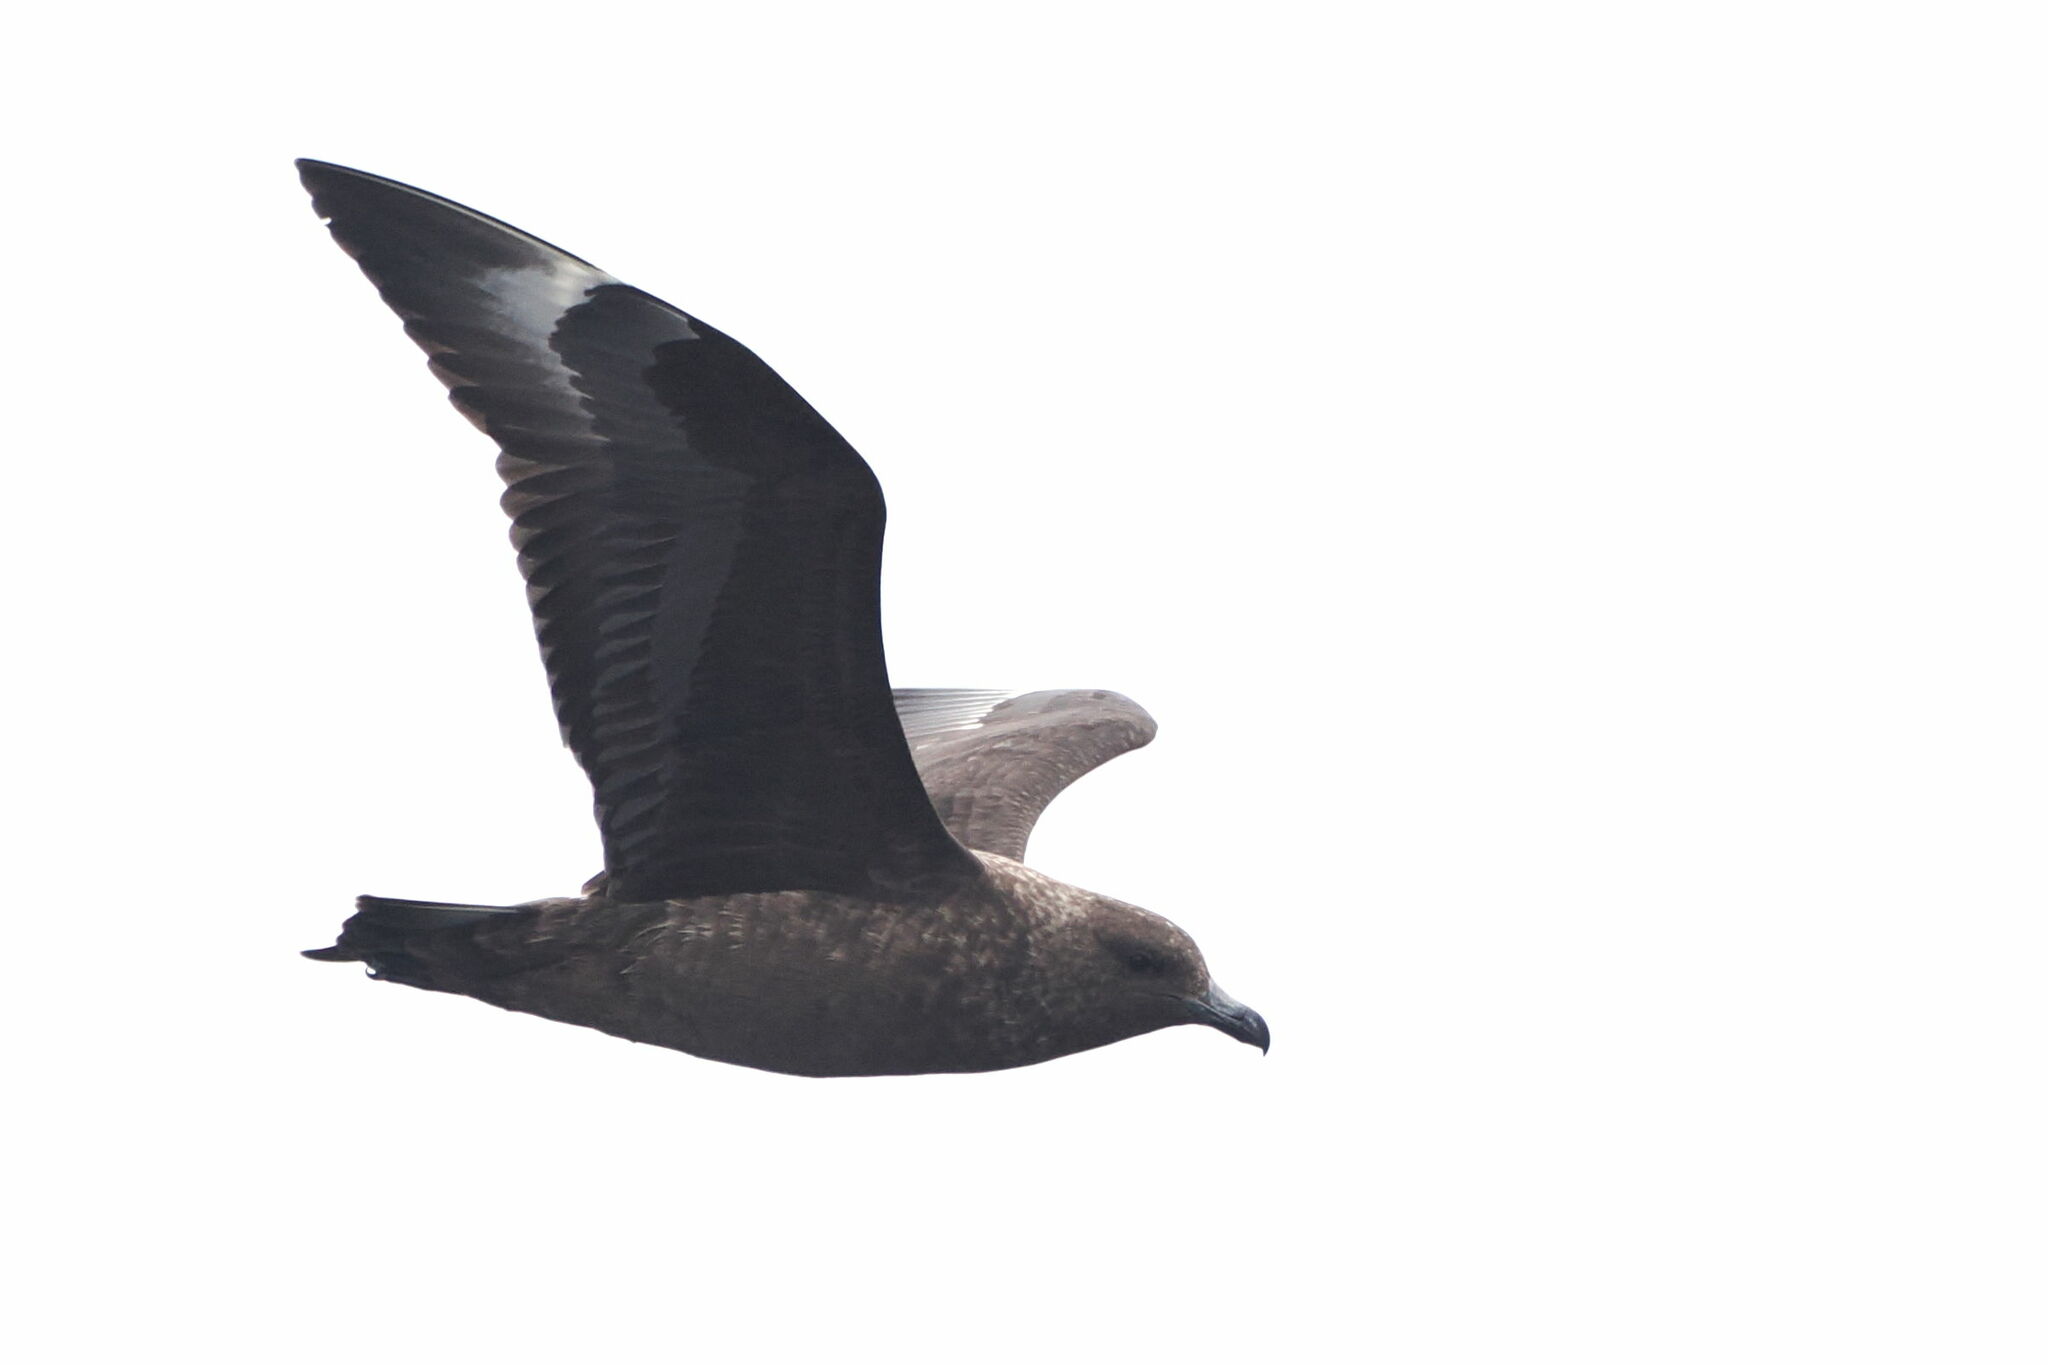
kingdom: Animalia
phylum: Chordata
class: Aves
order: Charadriiformes
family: Stercorariidae
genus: Stercorarius
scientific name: Stercorarius antarcticus
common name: Brown skua
